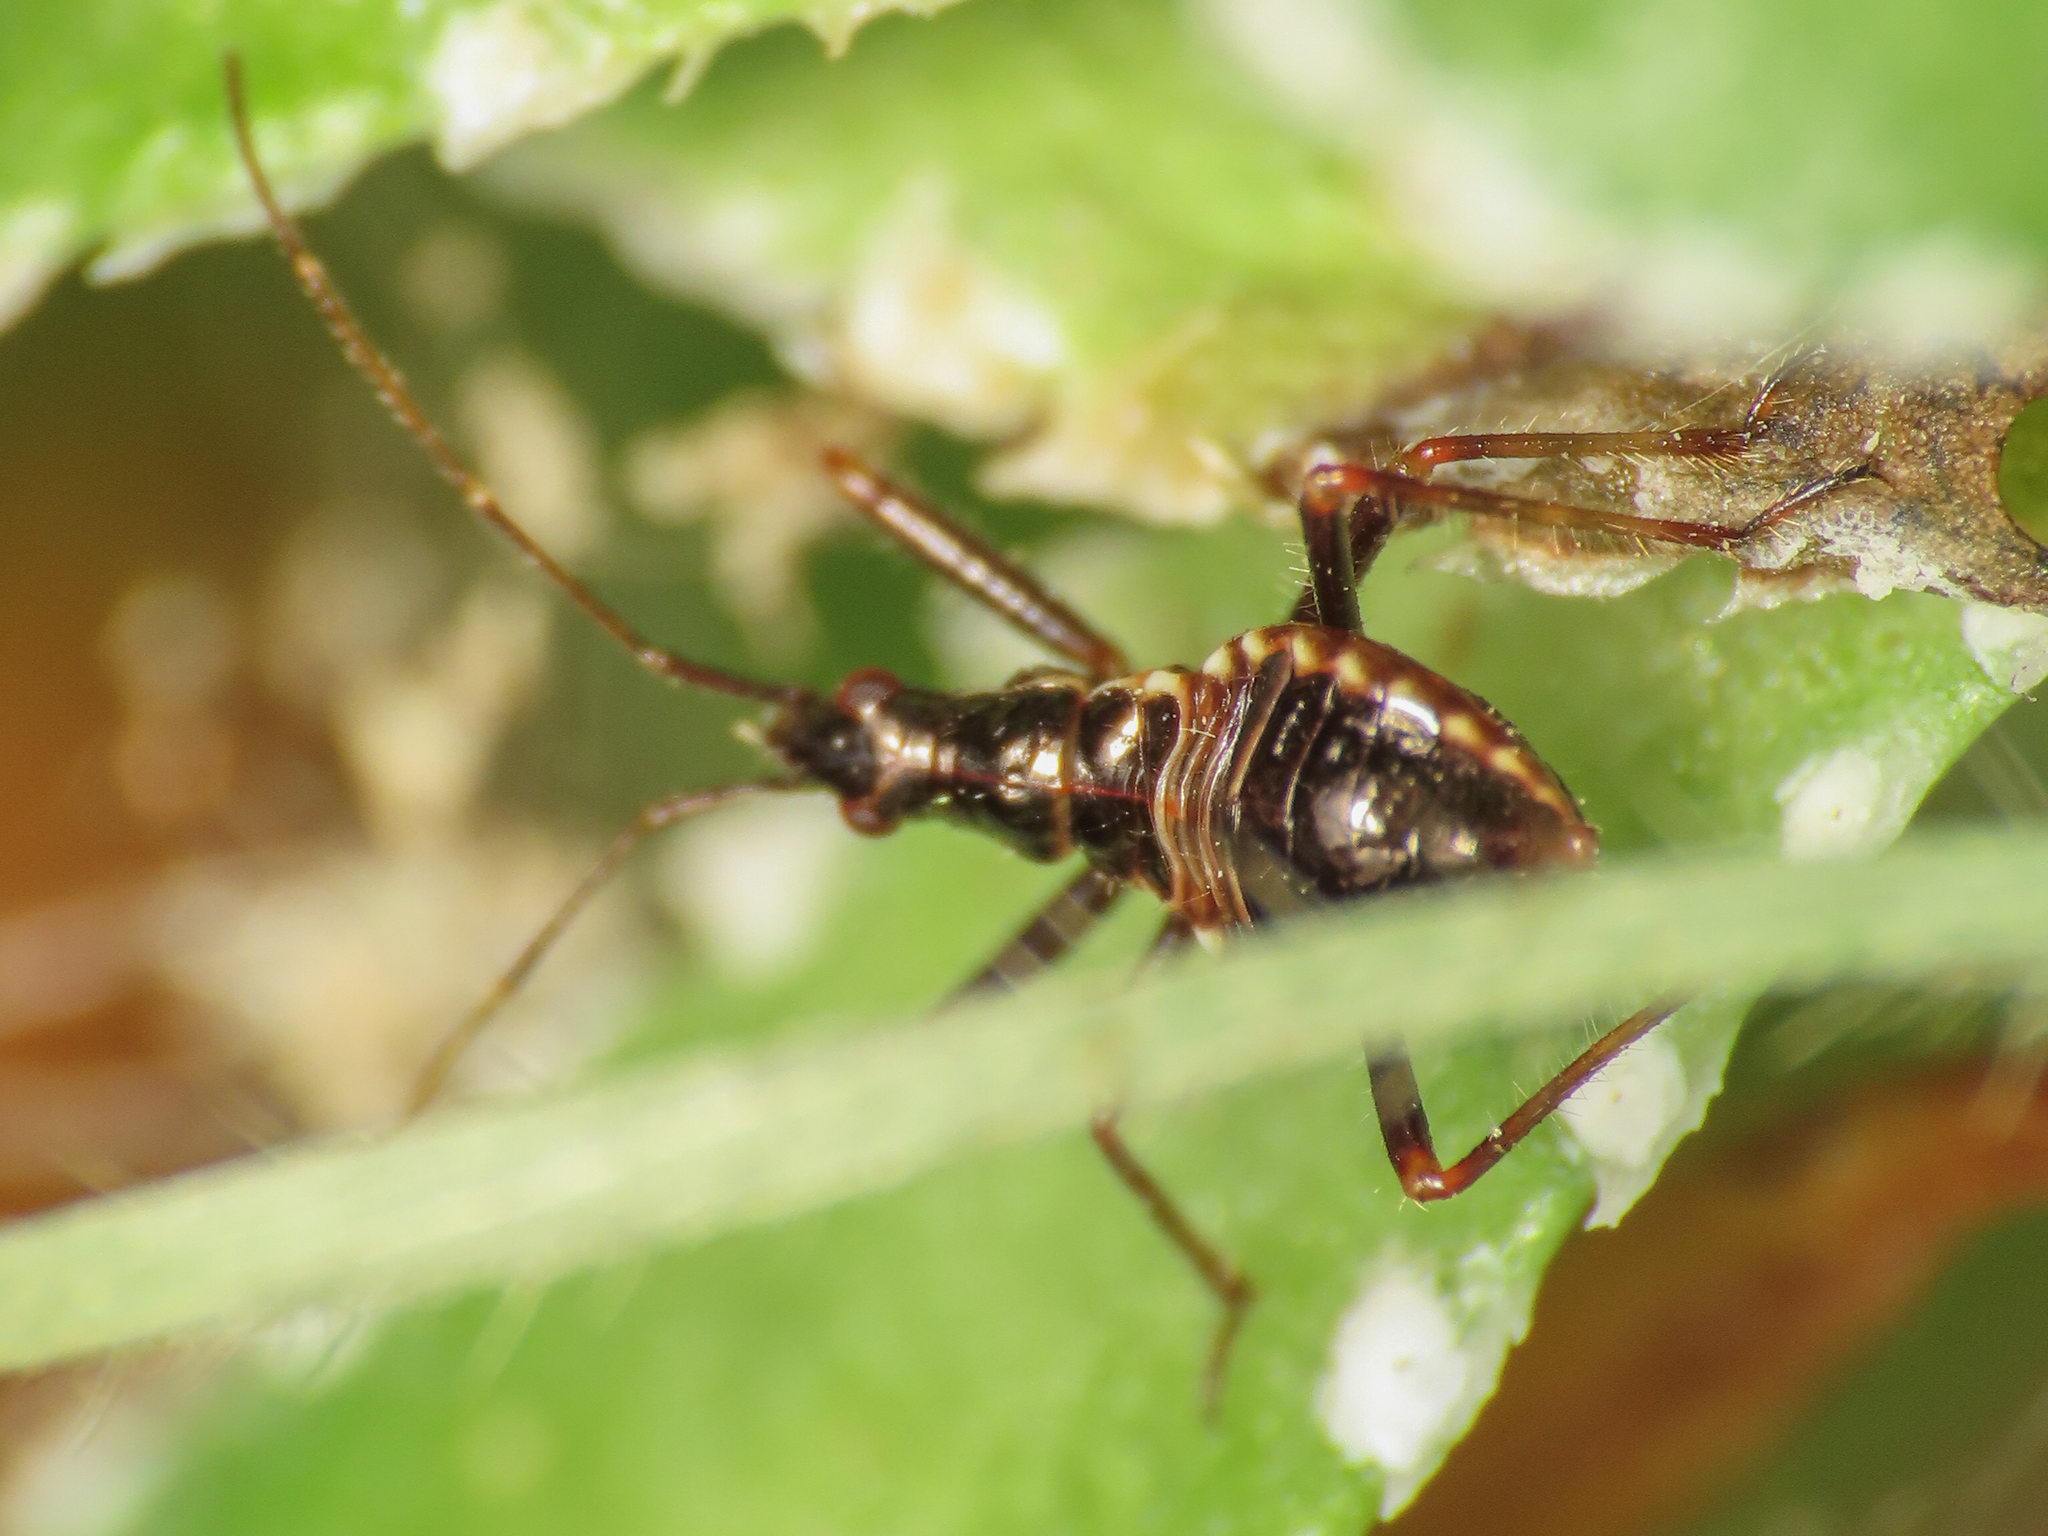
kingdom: Animalia
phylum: Arthropoda
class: Insecta
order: Hemiptera
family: Nabidae
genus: Himacerus
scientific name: Himacerus apterus
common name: Tree damsel bug
